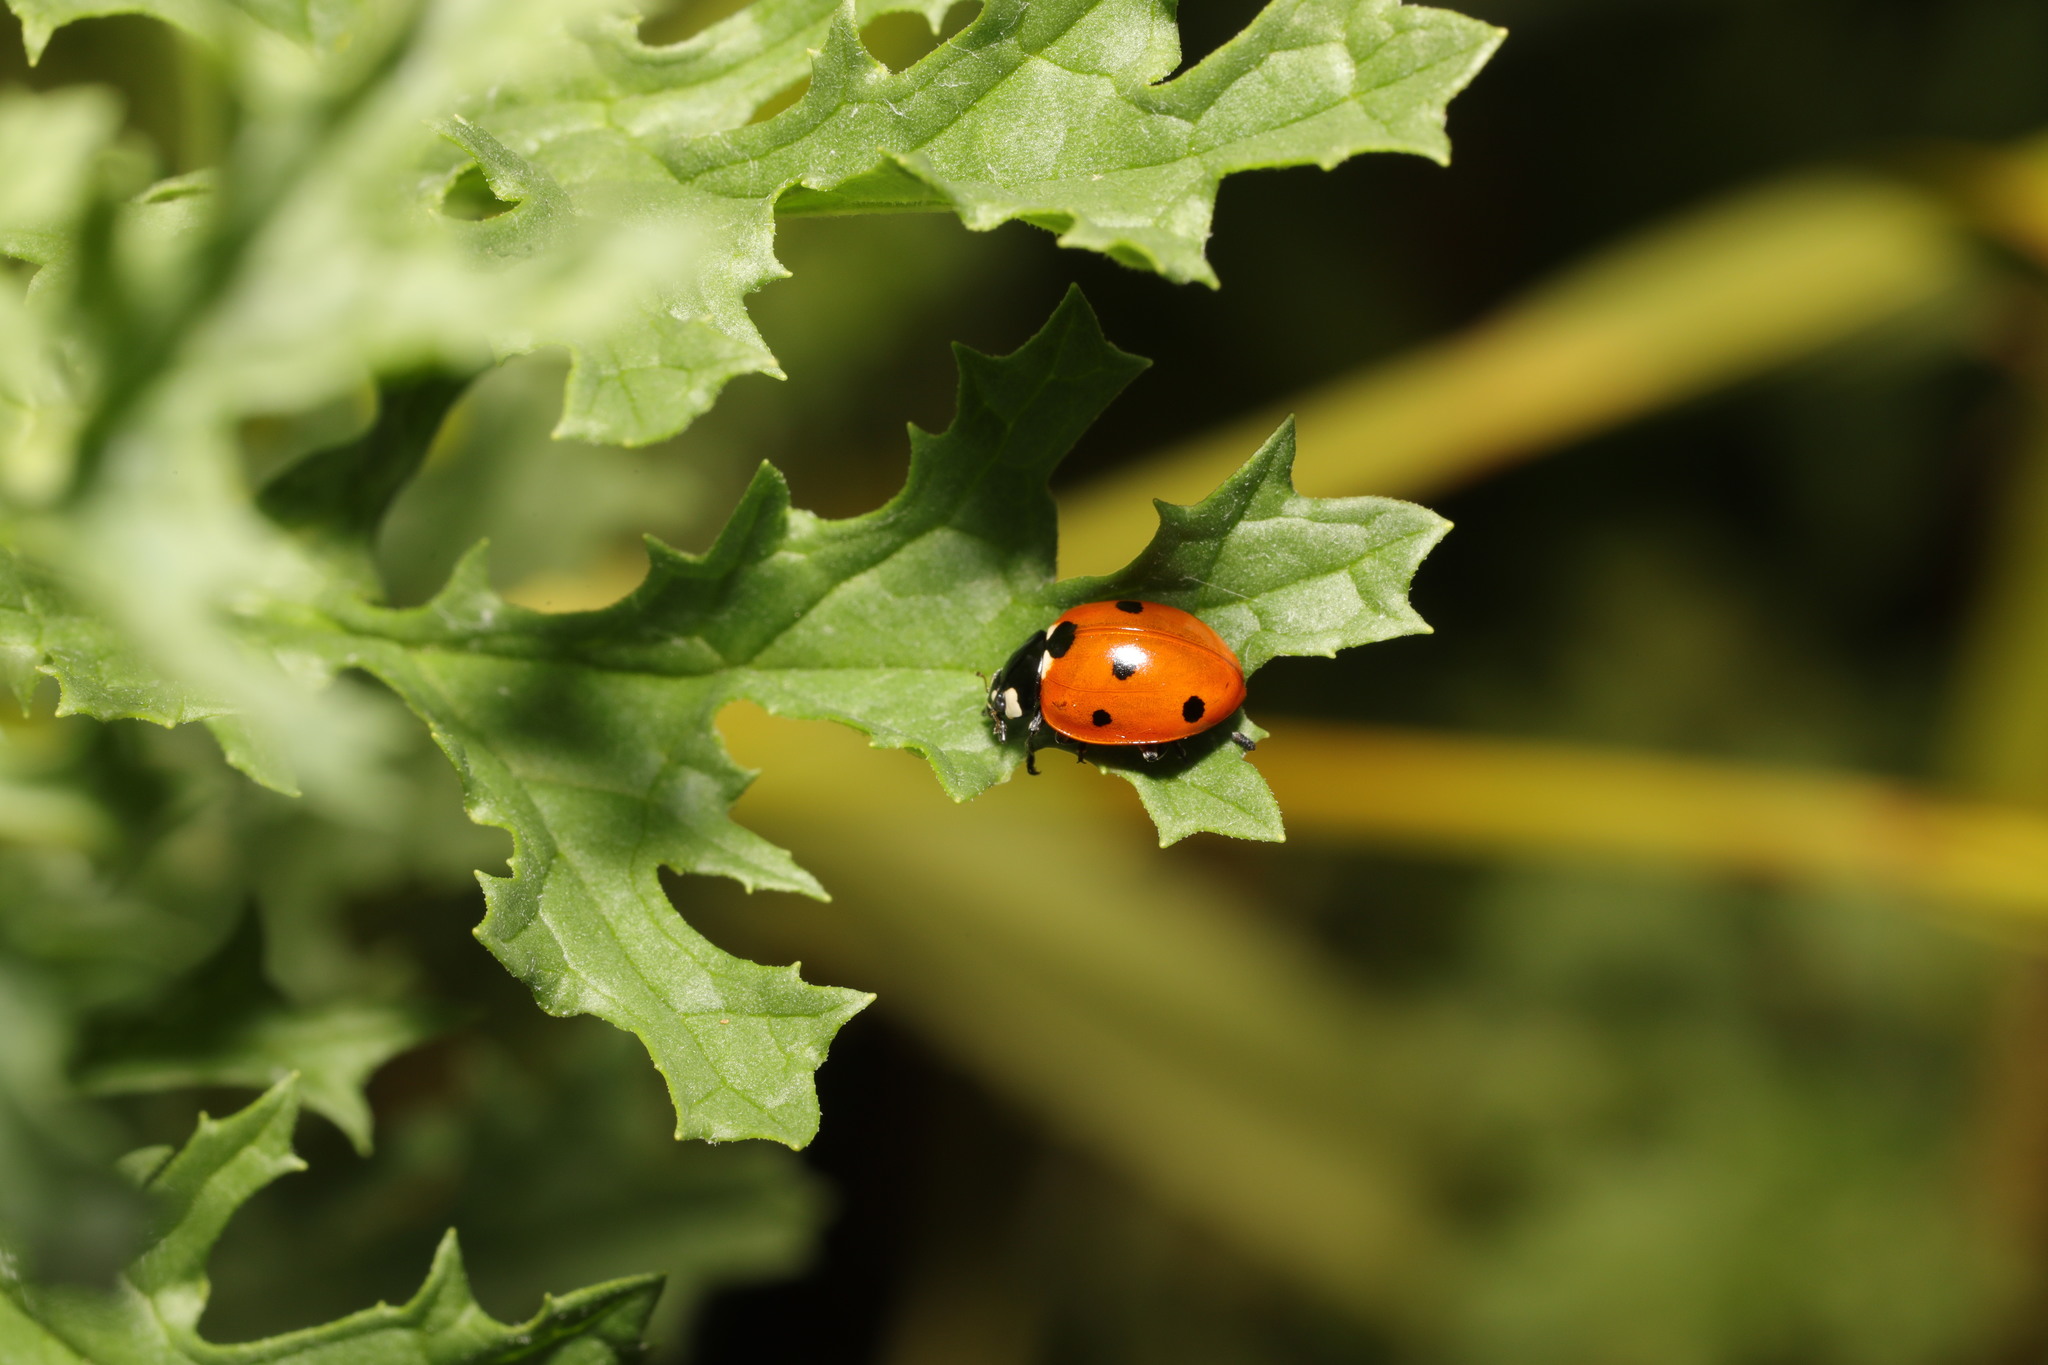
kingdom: Animalia
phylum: Arthropoda
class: Insecta
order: Coleoptera
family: Coccinellidae
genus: Coccinella
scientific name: Coccinella septempunctata
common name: Sevenspotted lady beetle
